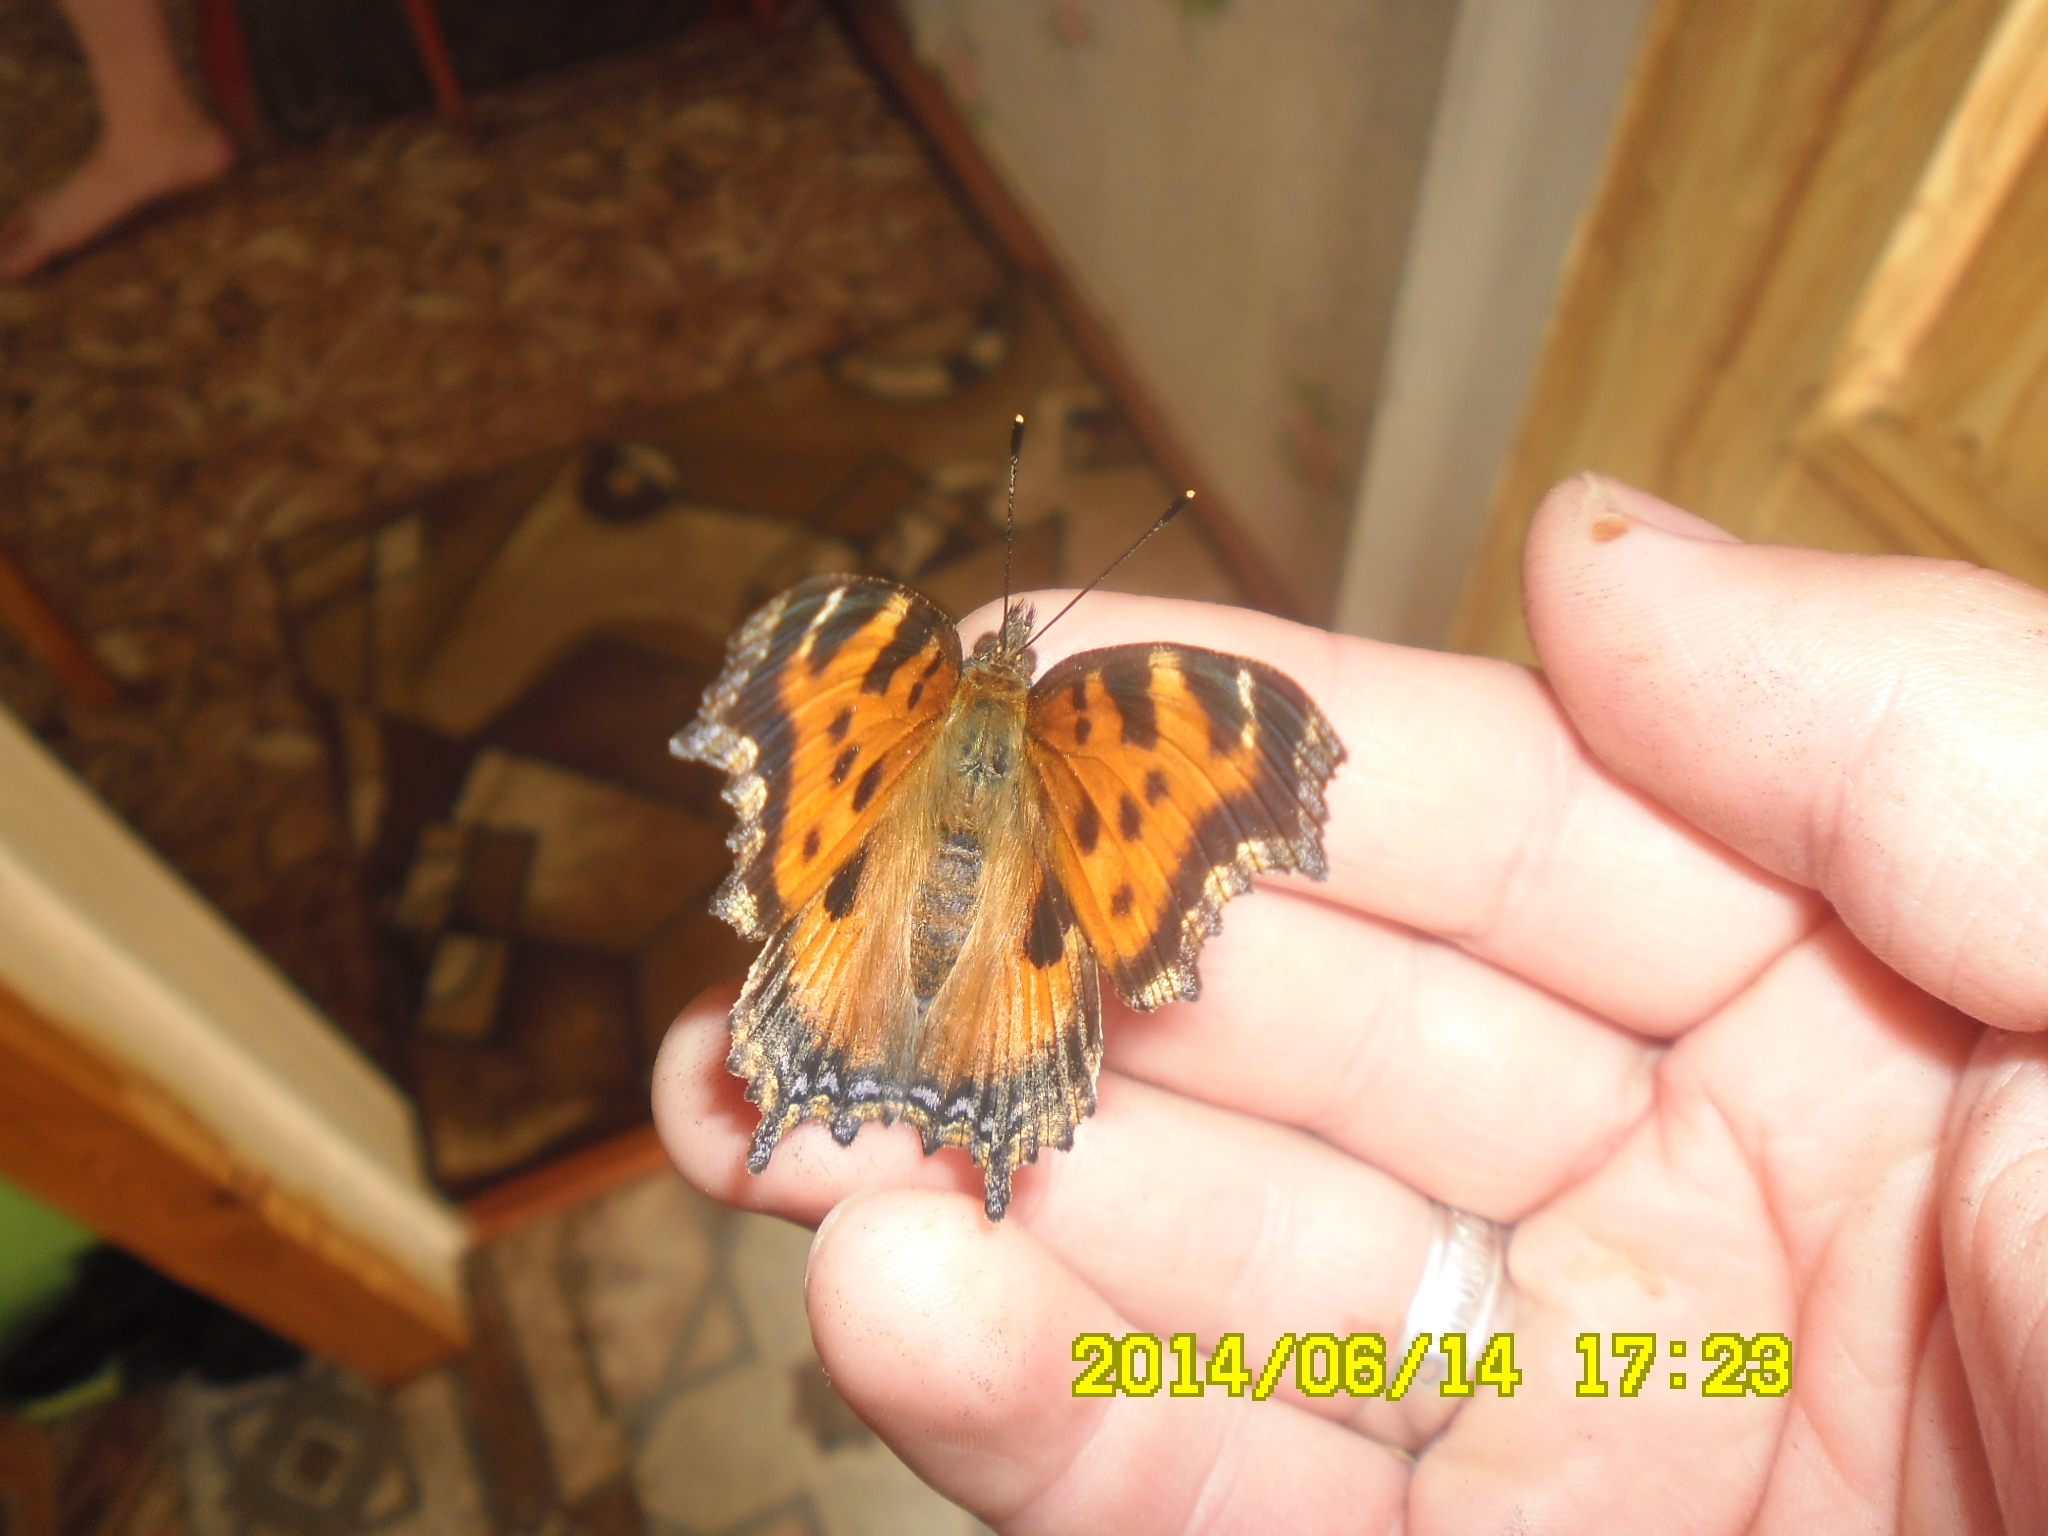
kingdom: Animalia
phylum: Arthropoda
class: Insecta
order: Lepidoptera
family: Nymphalidae
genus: Nymphalis
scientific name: Nymphalis xanthomelas
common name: Scarce tortoiseshell
